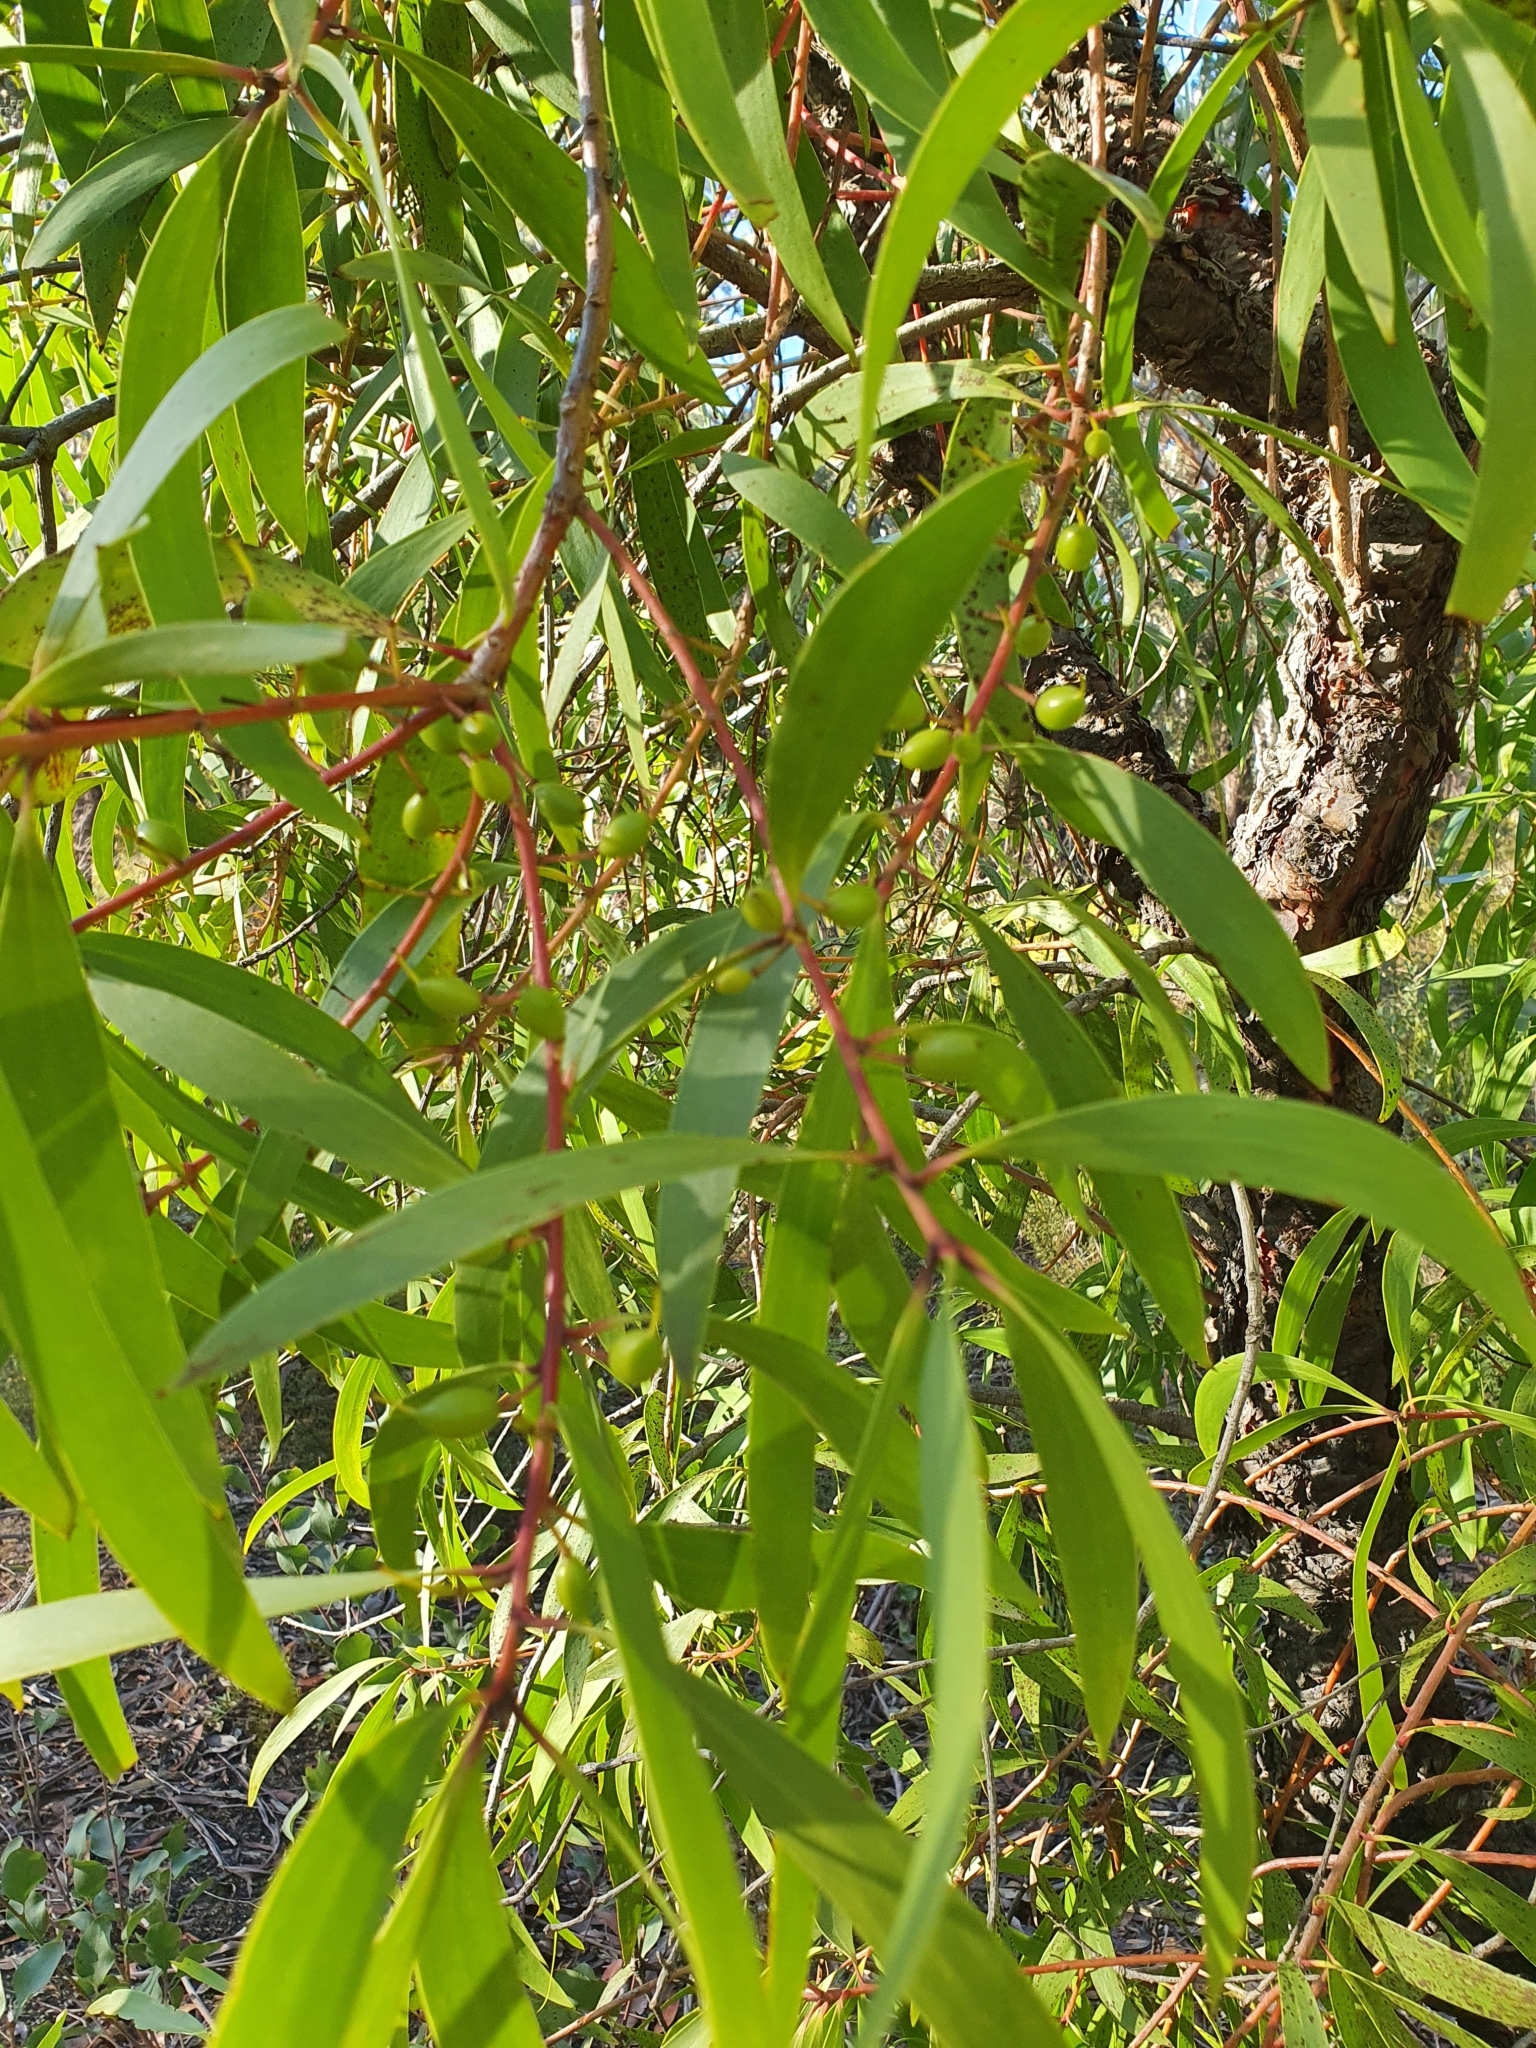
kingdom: Plantae
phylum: Tracheophyta
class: Magnoliopsida
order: Proteales
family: Proteaceae
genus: Persoonia
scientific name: Persoonia levis
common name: Smooth geebung
